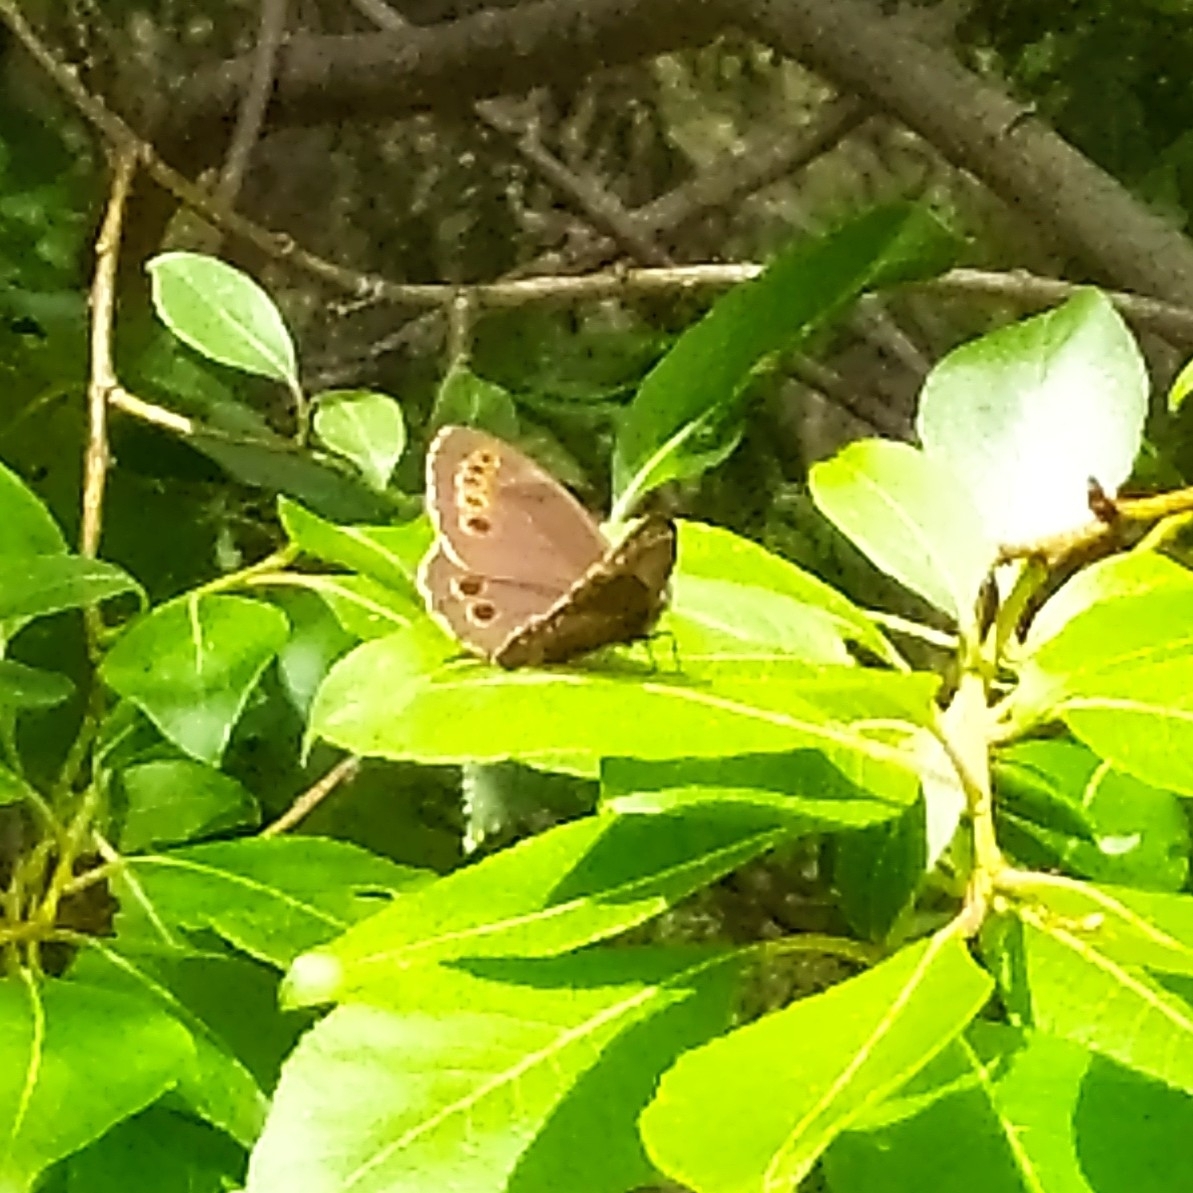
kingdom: Animalia
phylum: Arthropoda
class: Insecta
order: Lepidoptera
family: Nymphalidae
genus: Pararge
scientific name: Pararge Lopinga achine
